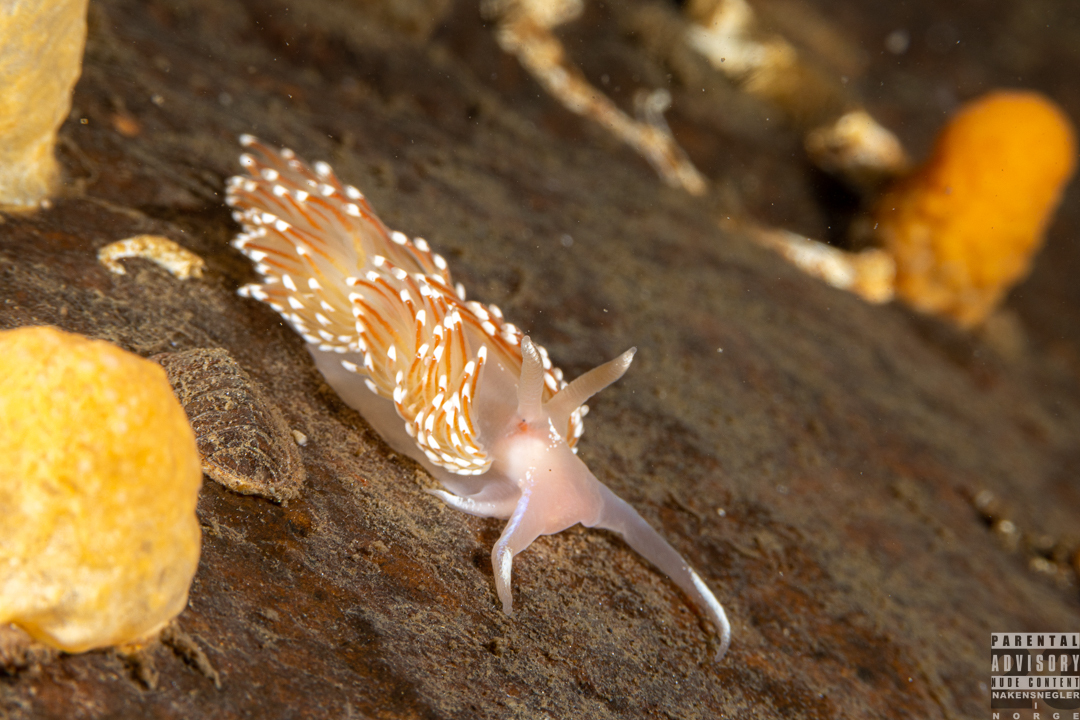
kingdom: Animalia
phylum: Mollusca
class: Gastropoda
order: Nudibranchia
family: Facelinidae
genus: Facelina
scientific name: Facelina bostoniensis
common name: Boston facelina
